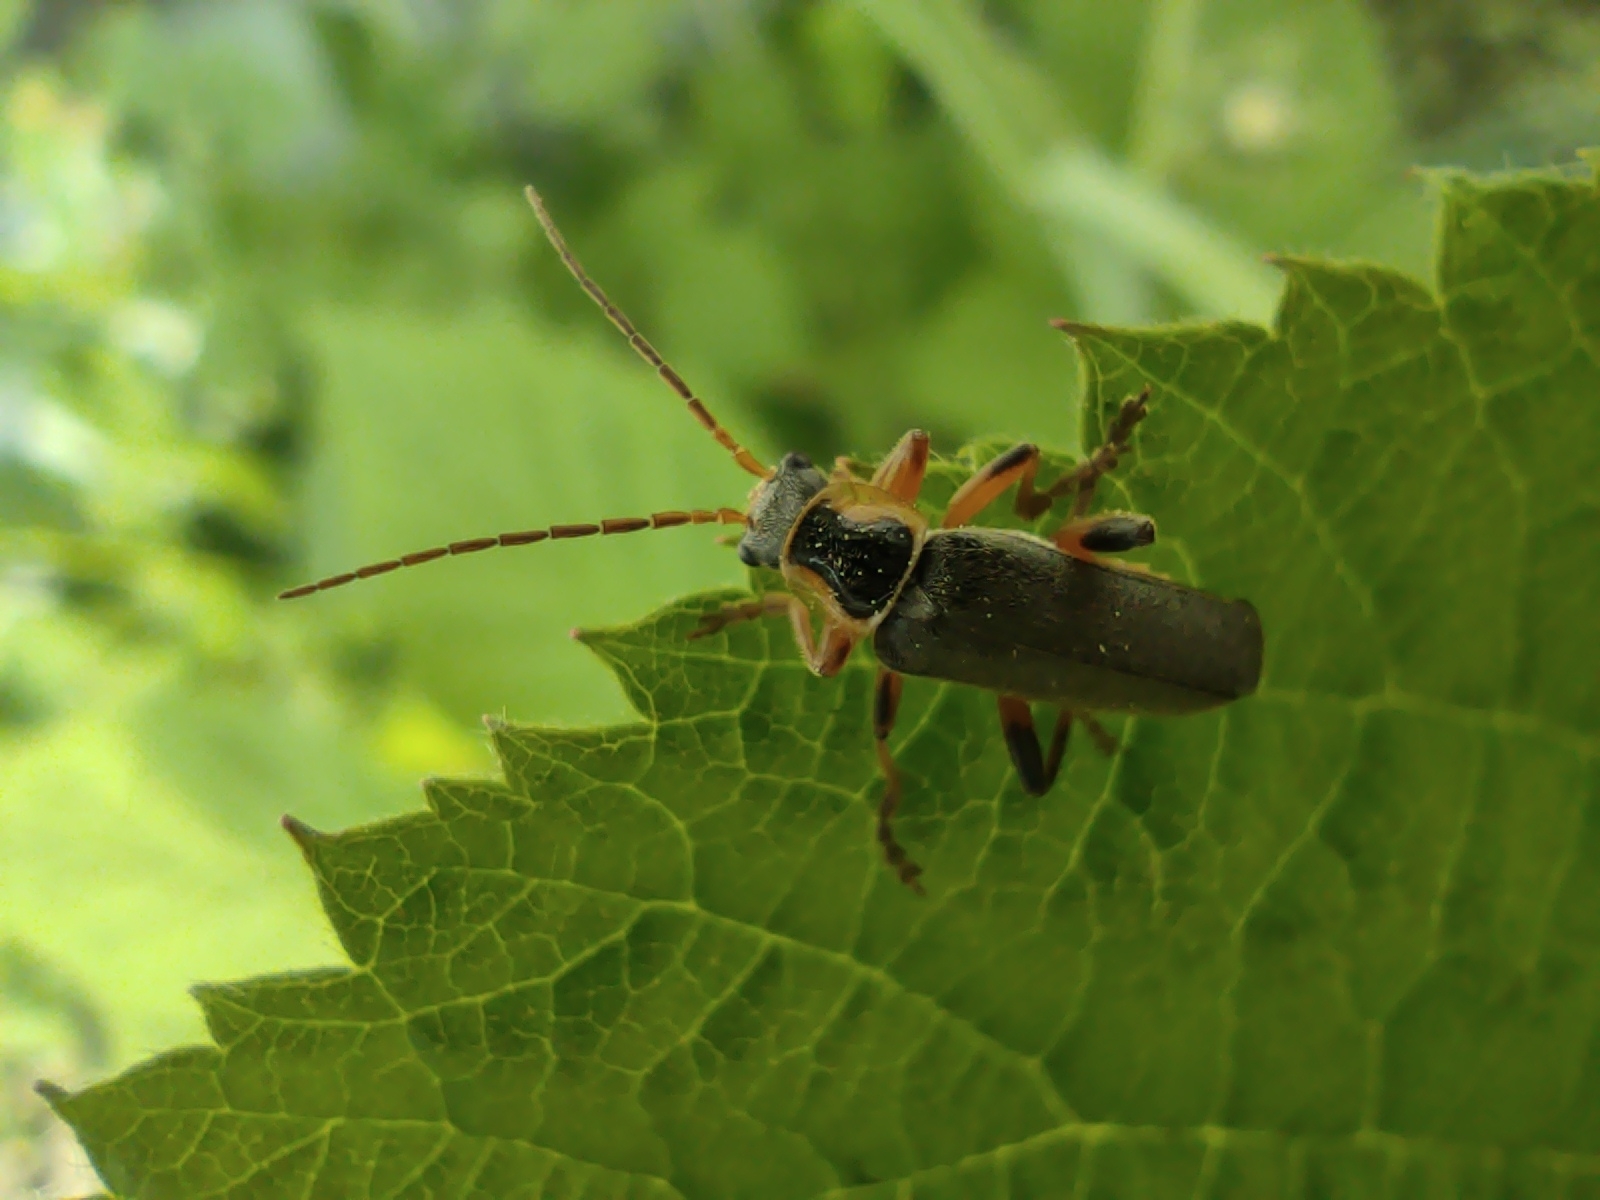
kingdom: Animalia
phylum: Arthropoda
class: Insecta
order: Coleoptera
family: Cantharidae
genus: Cantharis
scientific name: Cantharis nigricans
